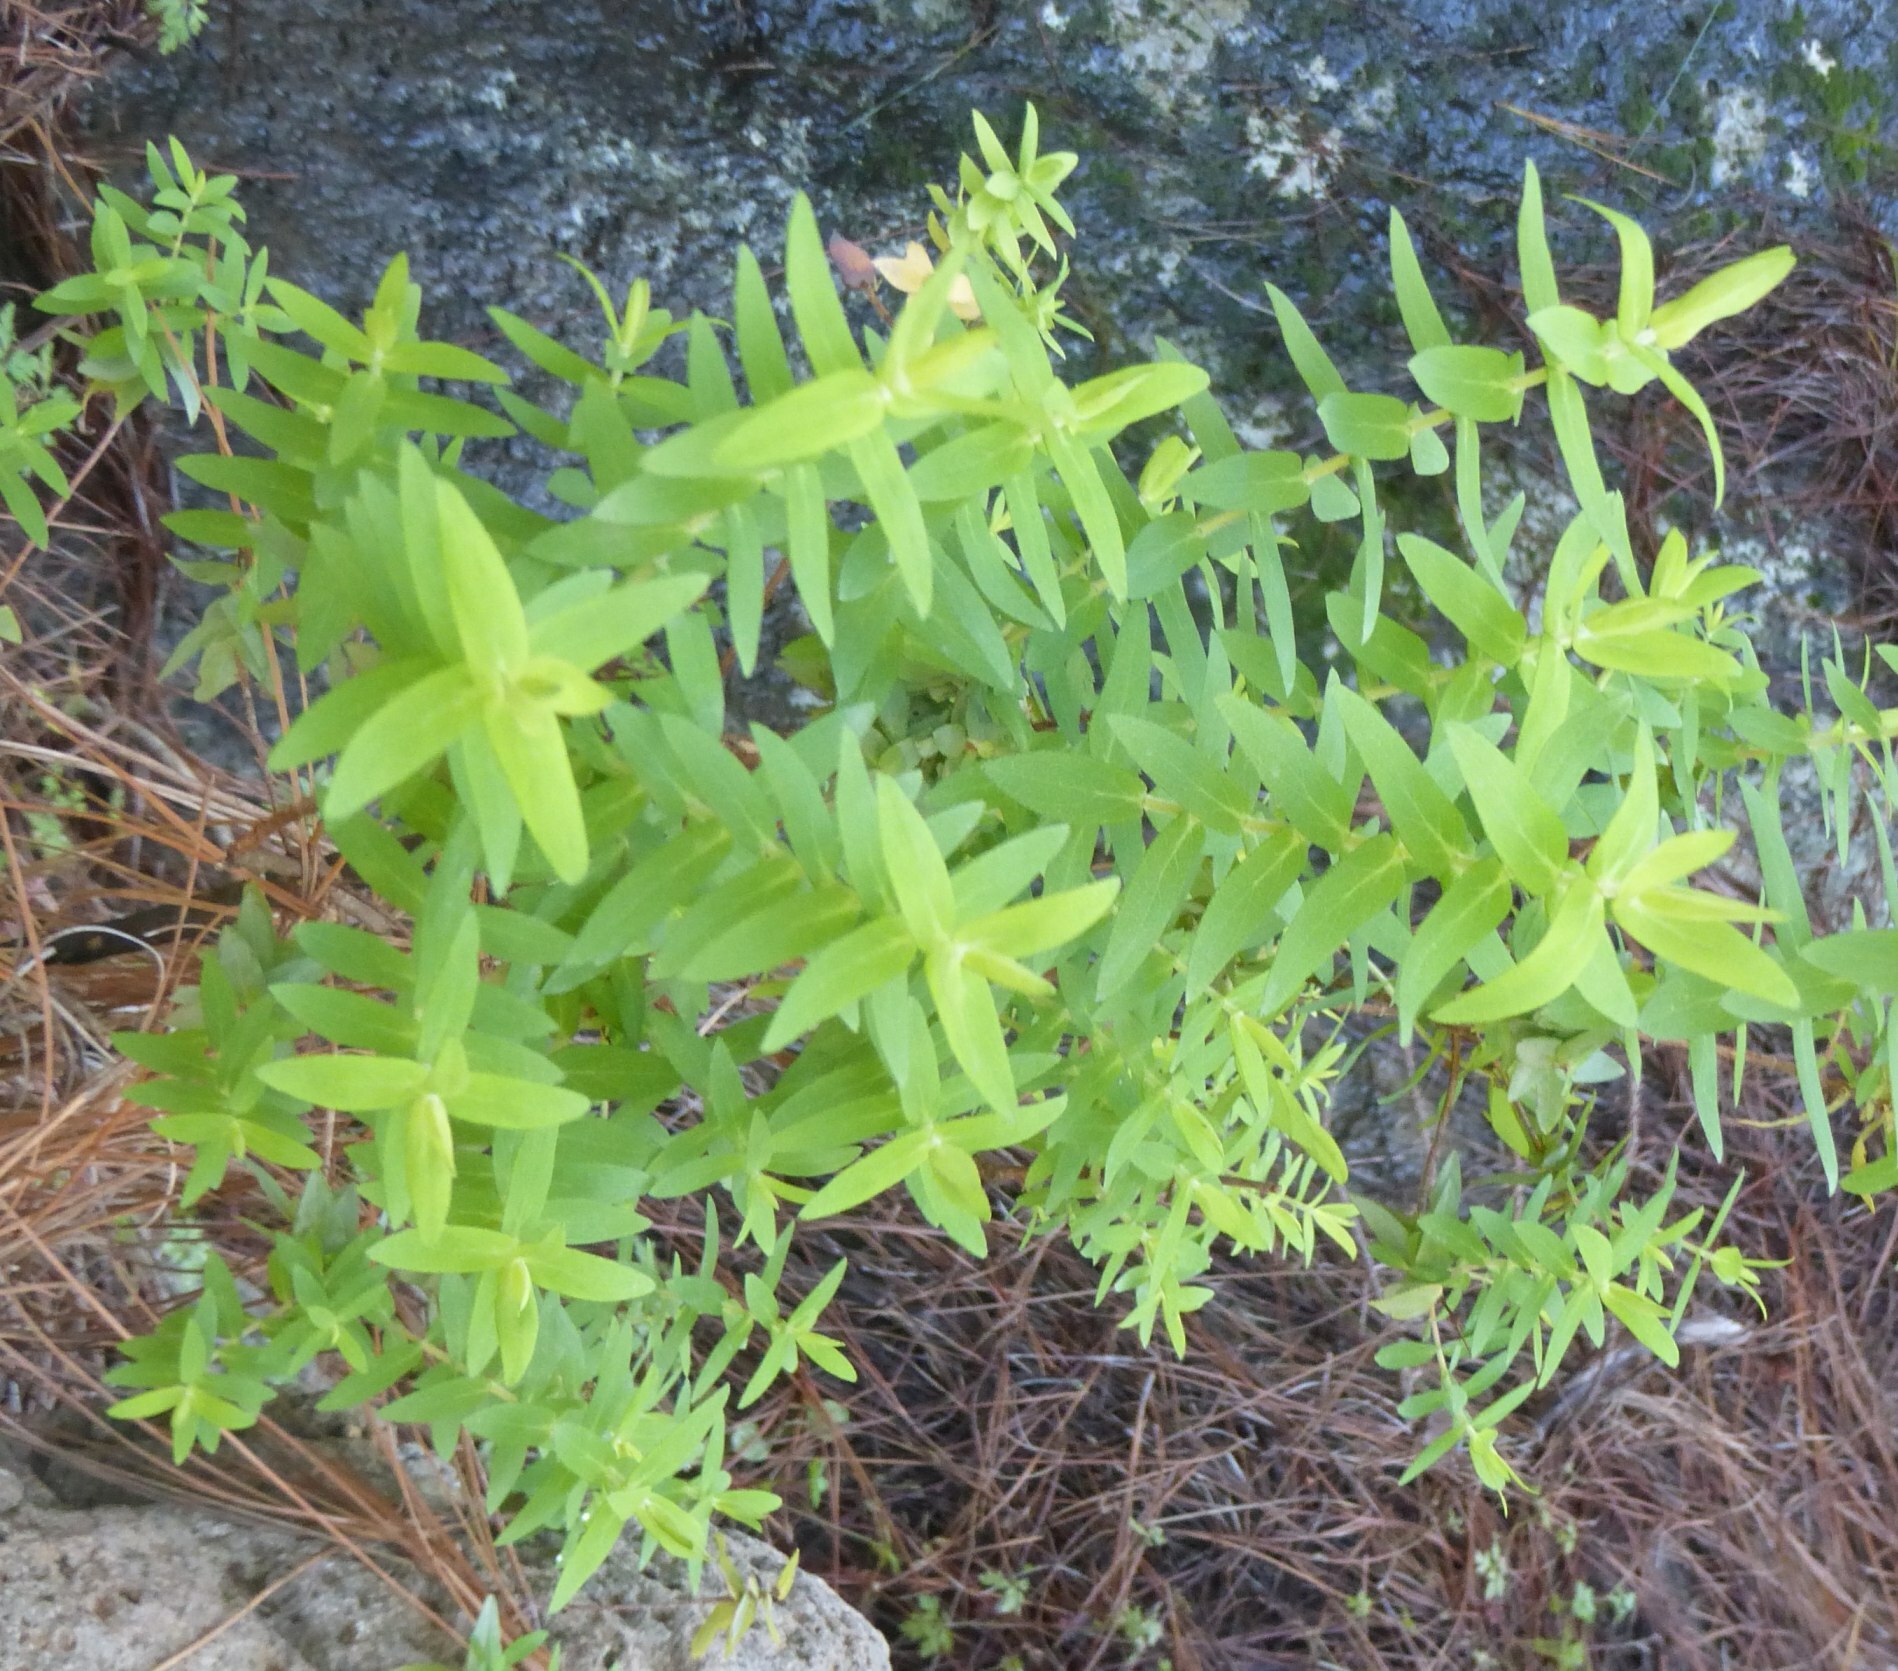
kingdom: Plantae
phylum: Tracheophyta
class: Magnoliopsida
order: Malpighiales
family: Hypericaceae
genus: Hypericum
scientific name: Hypericum reflexum
